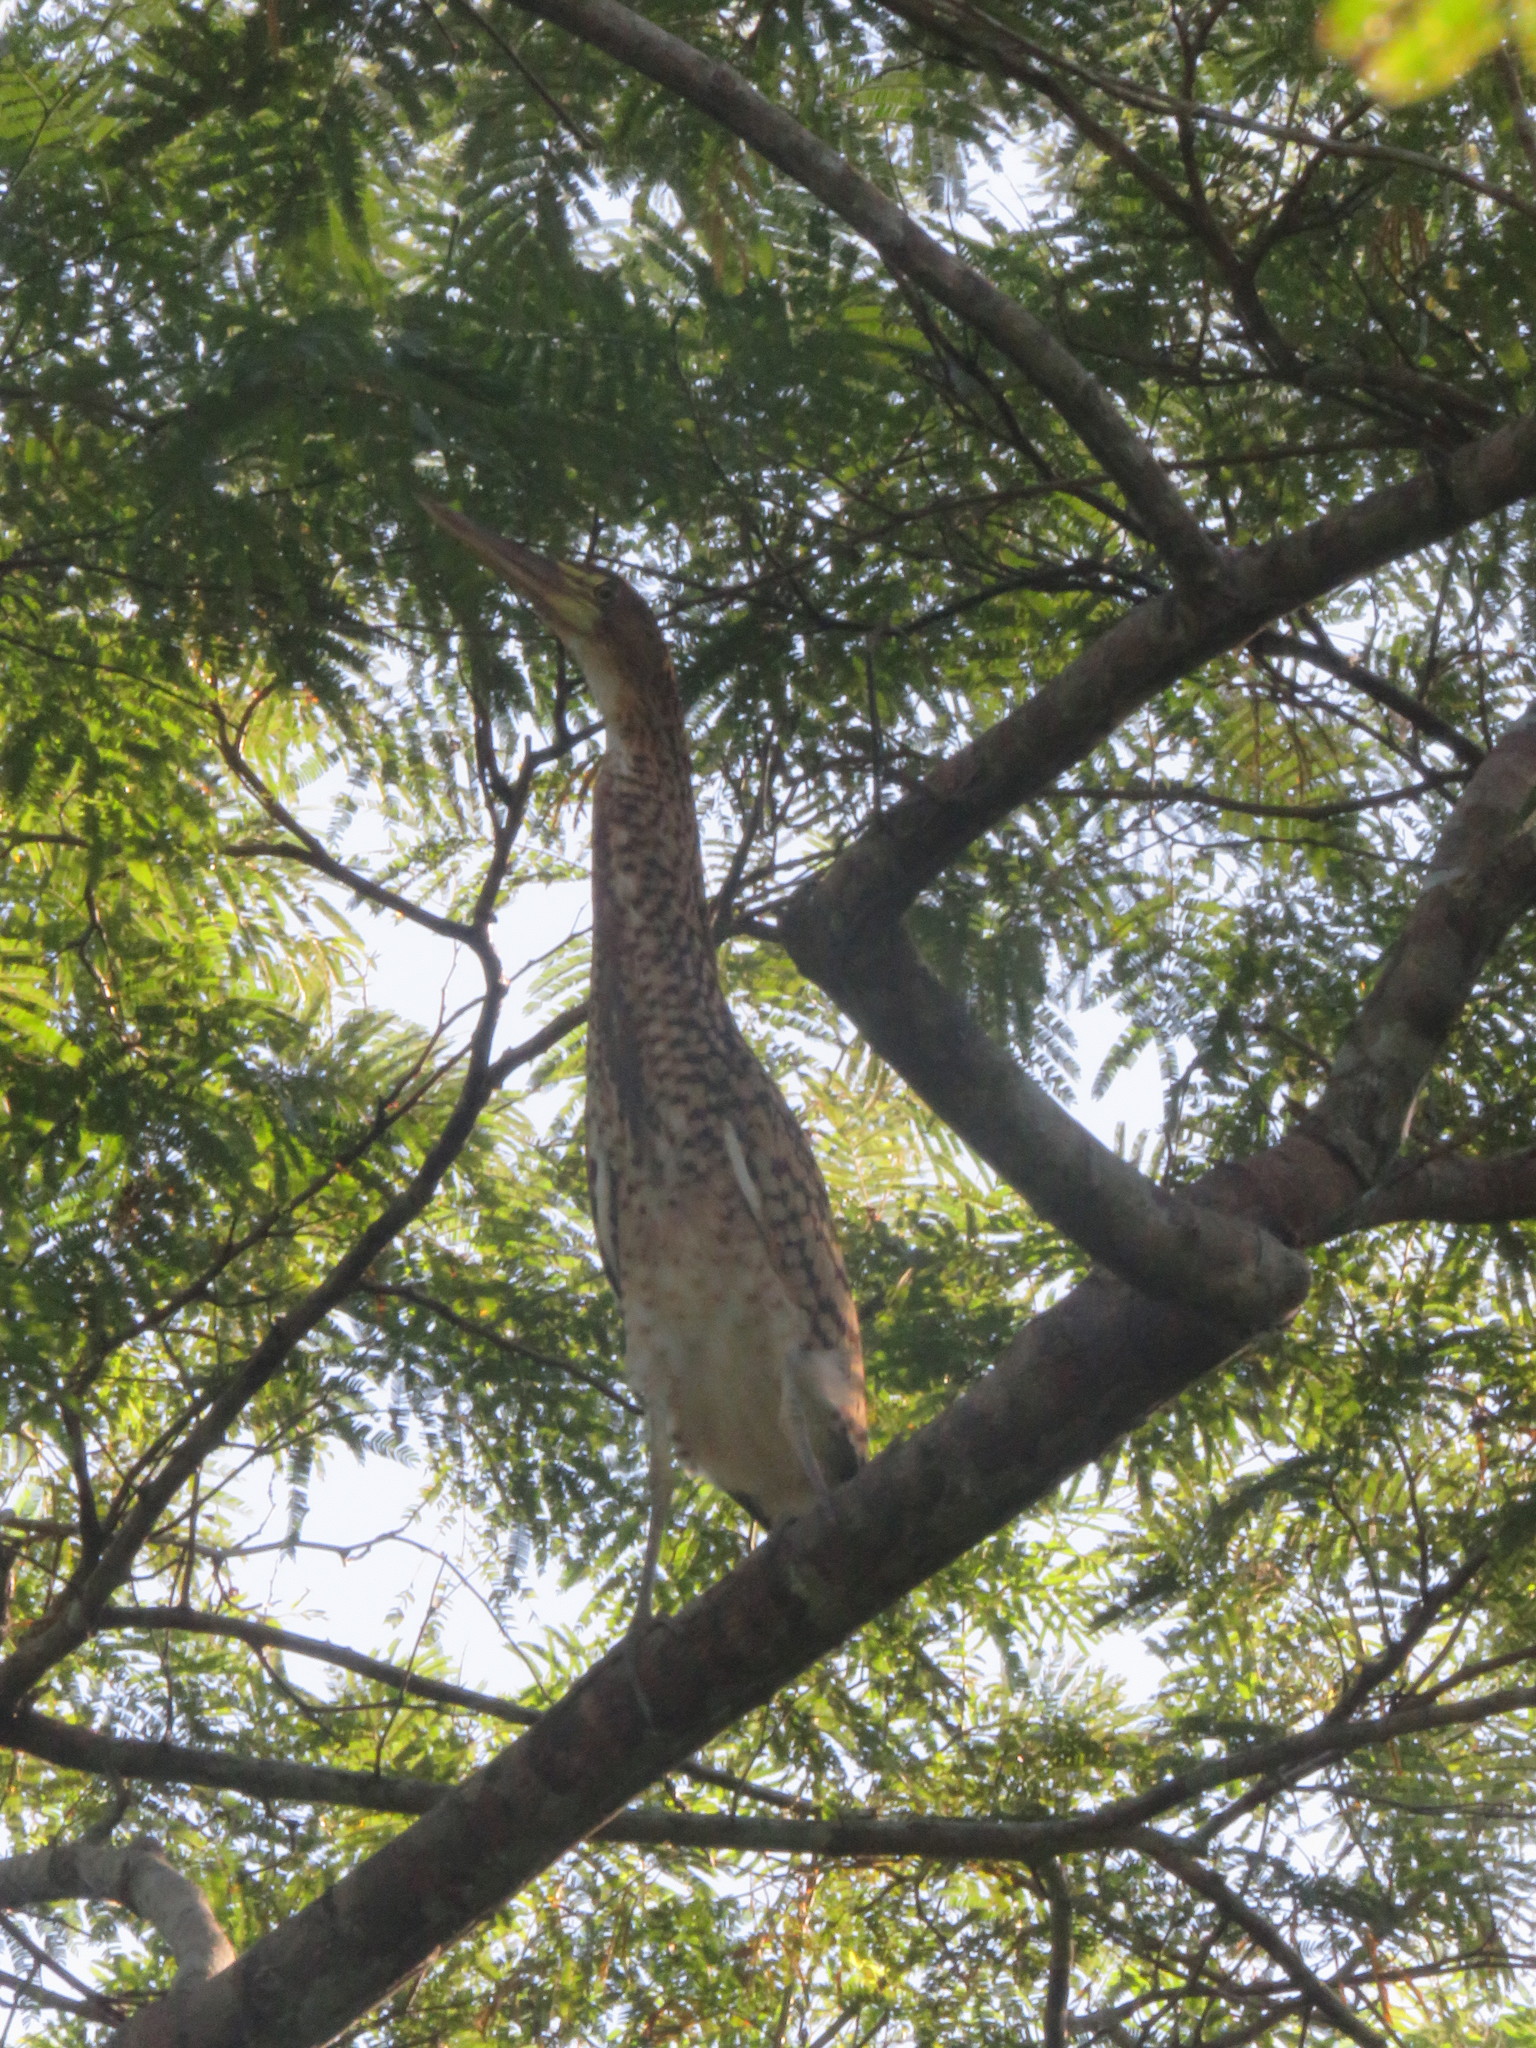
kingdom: Animalia
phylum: Chordata
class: Aves
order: Pelecaniformes
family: Ardeidae
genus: Tigrisoma
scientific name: Tigrisoma lineatum
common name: Rufescent tiger-heron
